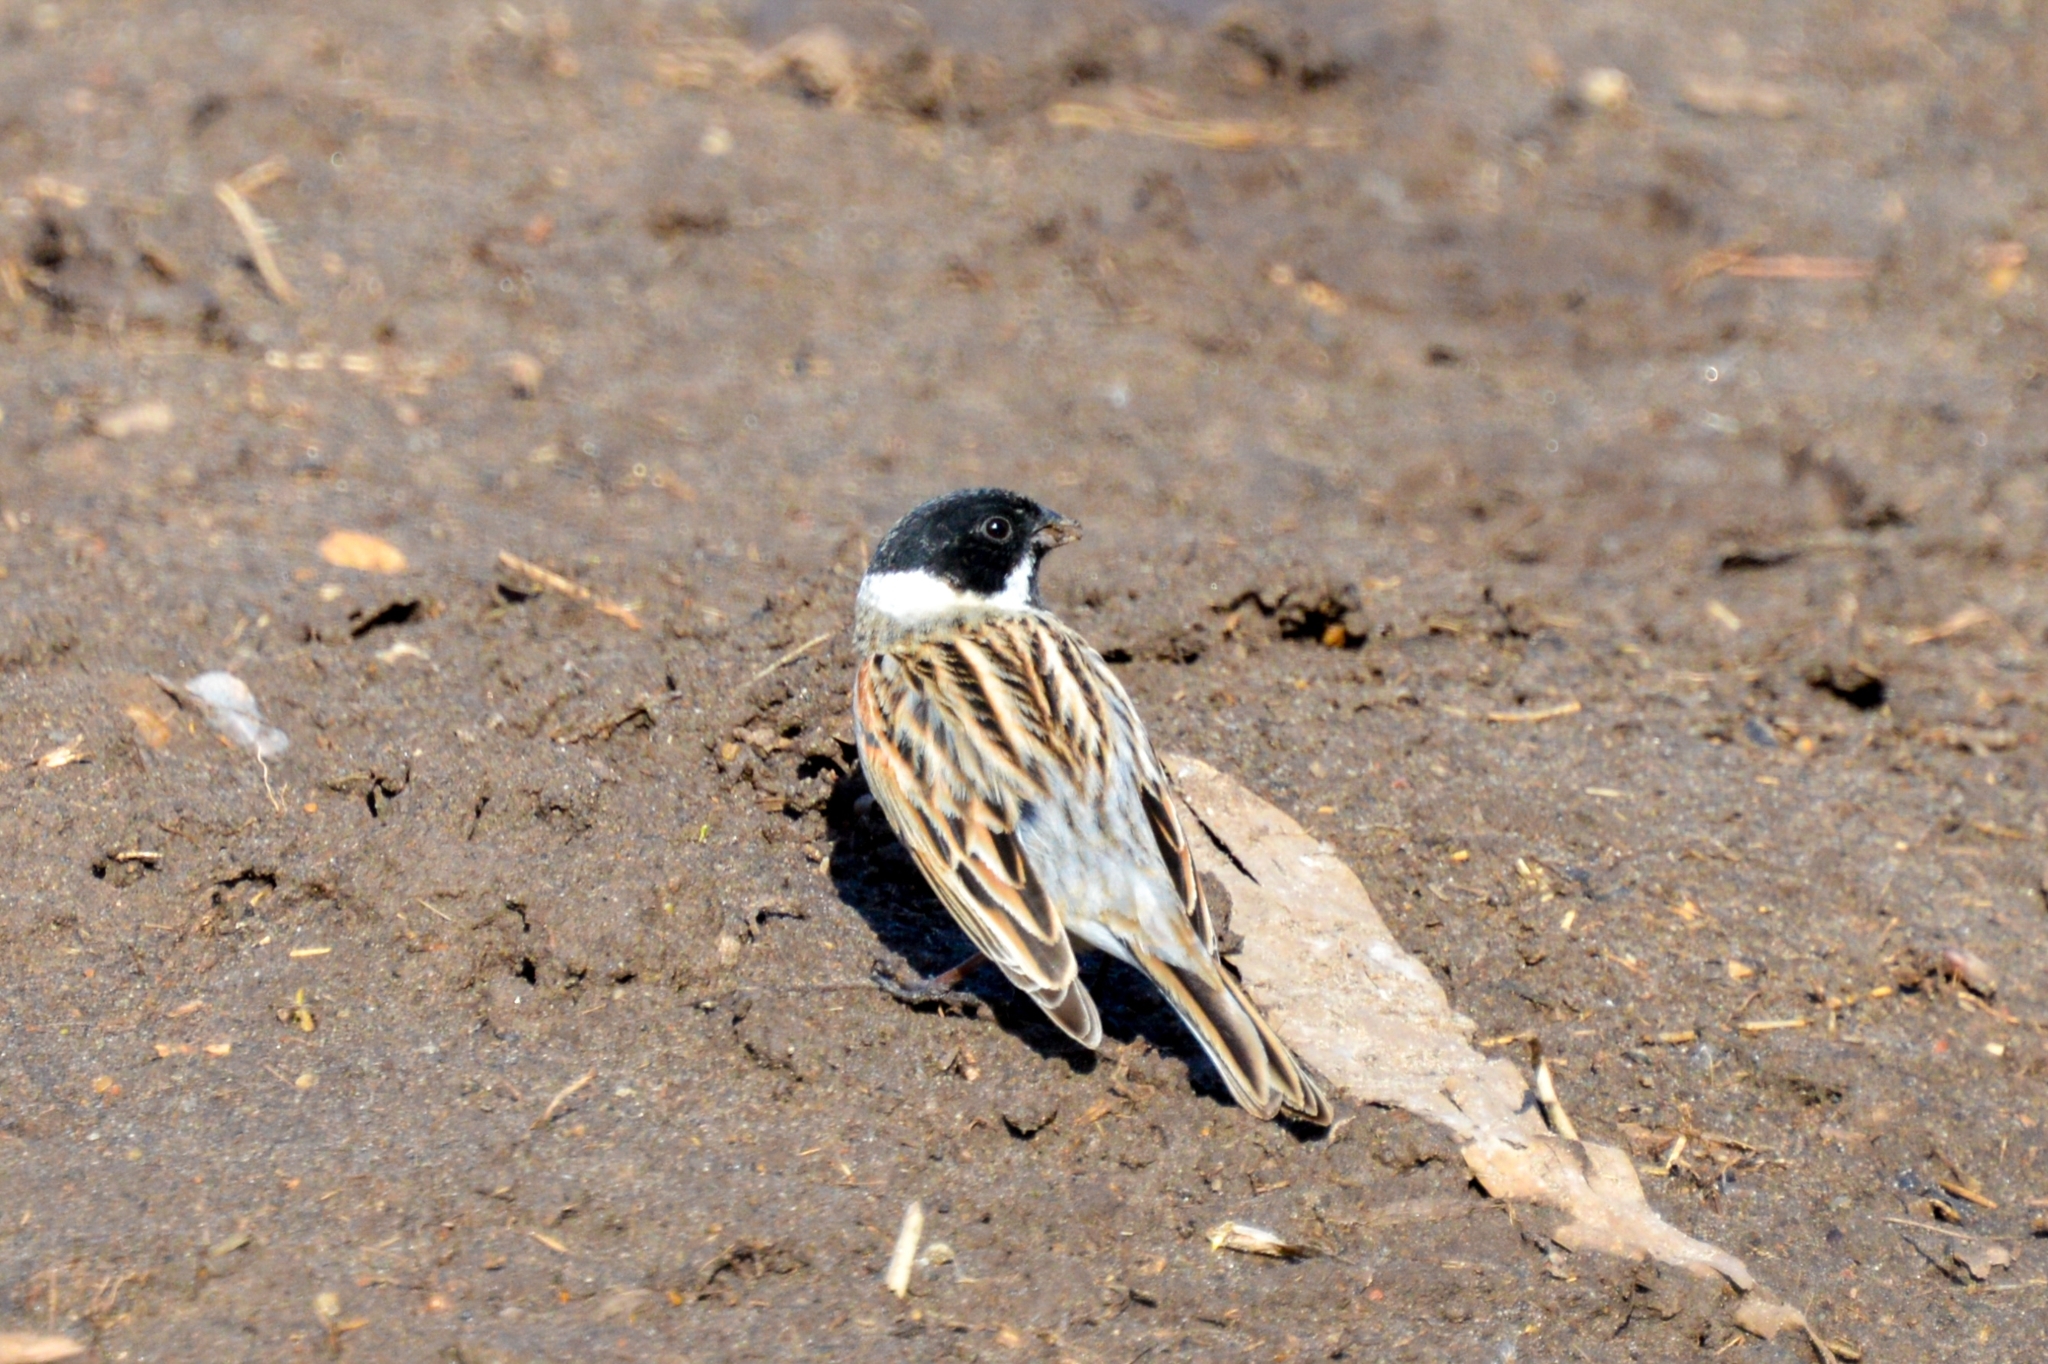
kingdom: Animalia
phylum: Chordata
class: Aves
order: Passeriformes
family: Emberizidae
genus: Emberiza
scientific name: Emberiza schoeniclus
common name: Reed bunting
